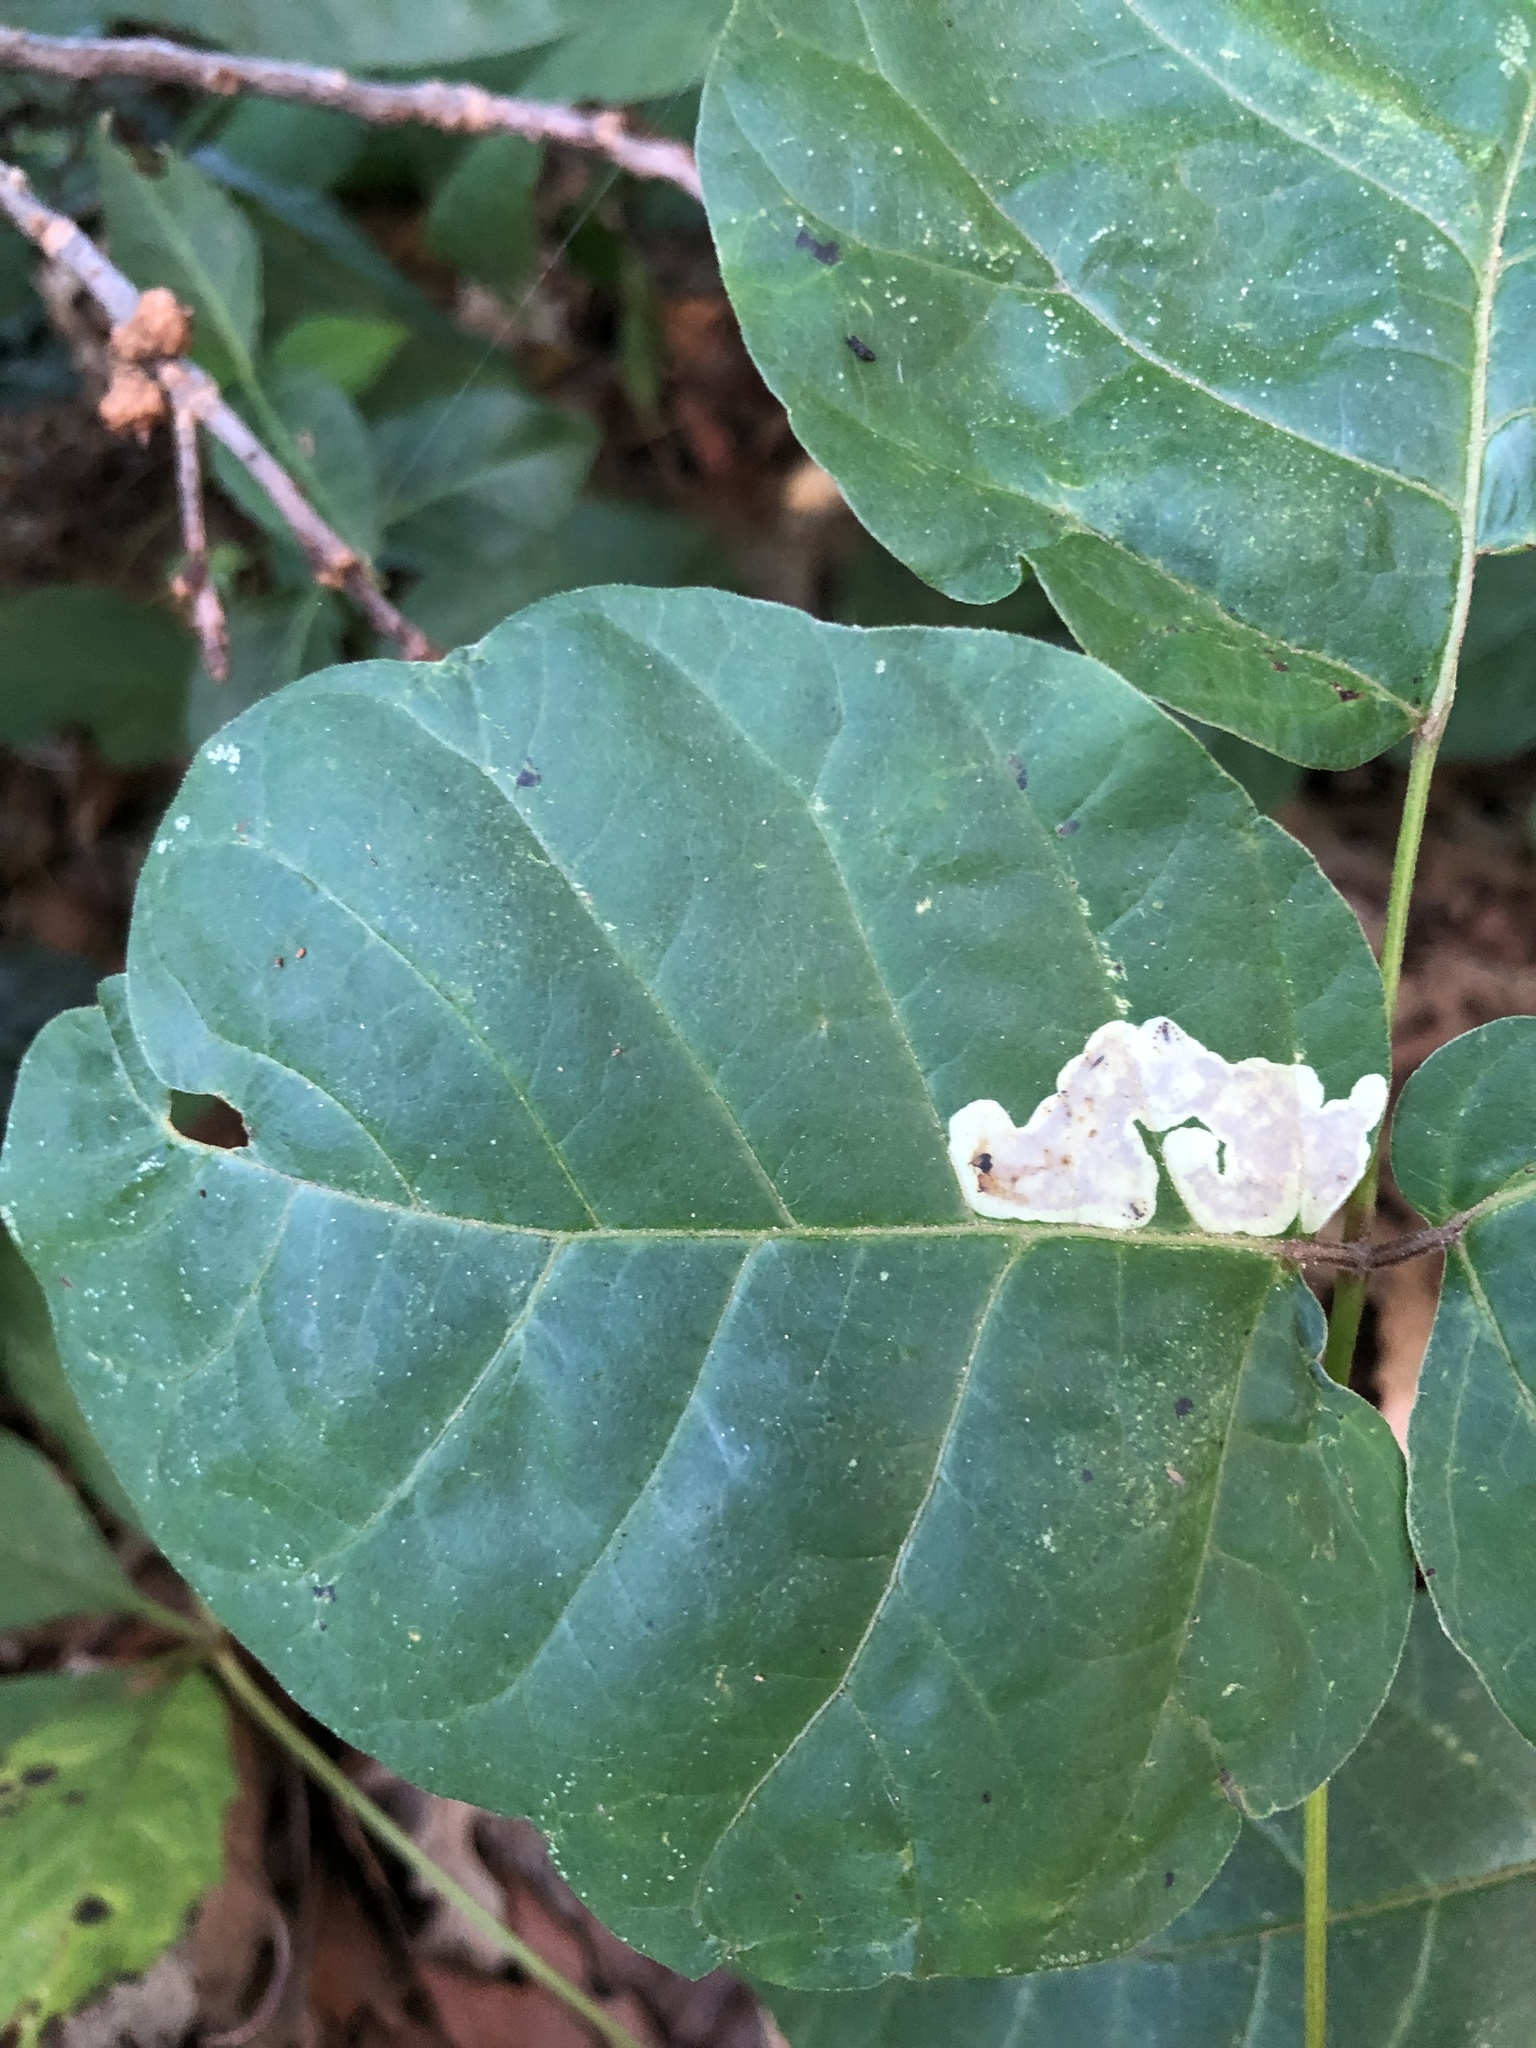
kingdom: Animalia
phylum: Arthropoda
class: Insecta
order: Lepidoptera
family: Gracillariidae
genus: Cameraria
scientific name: Cameraria guttifinitella
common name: Poison ivy leaf-miner moth
